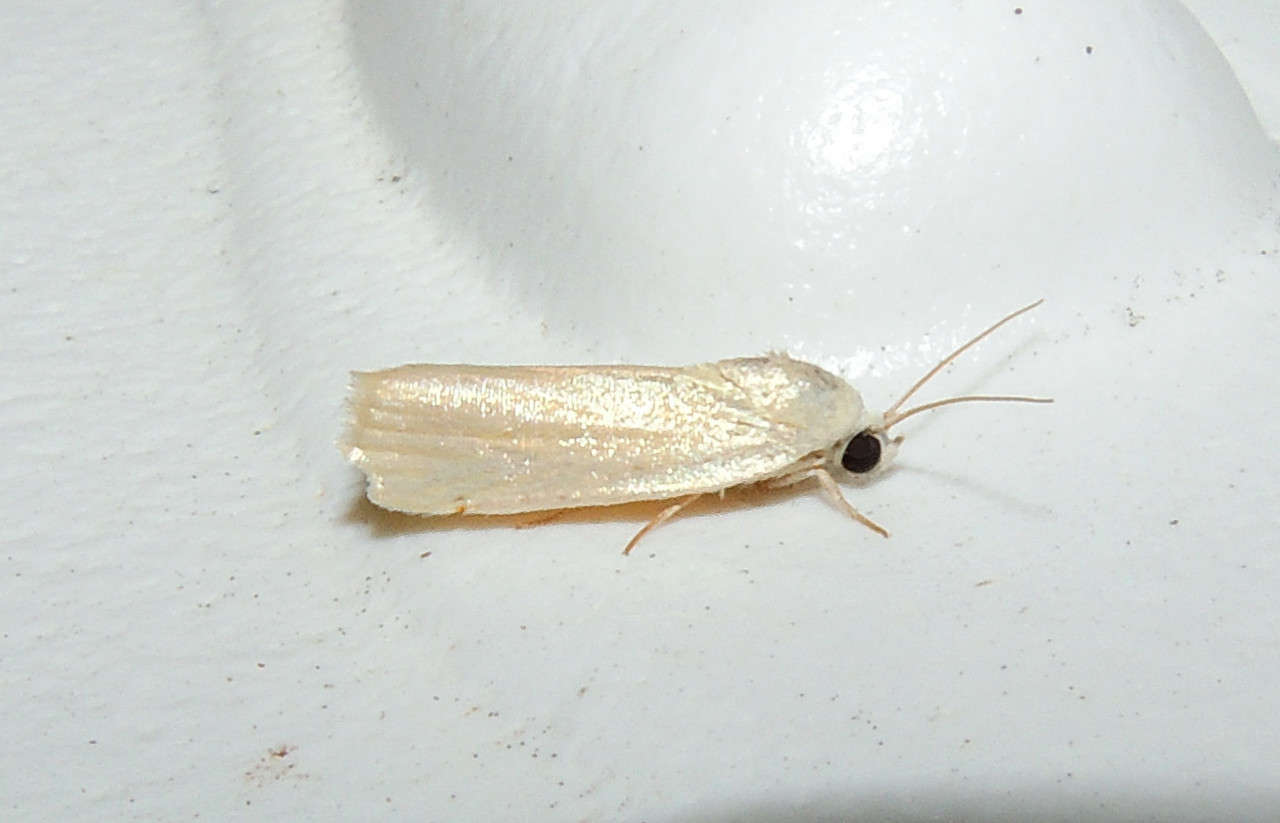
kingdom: Animalia
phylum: Arthropoda
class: Insecta
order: Lepidoptera
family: Nolidae
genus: Earias
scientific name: Earias chlorodes
